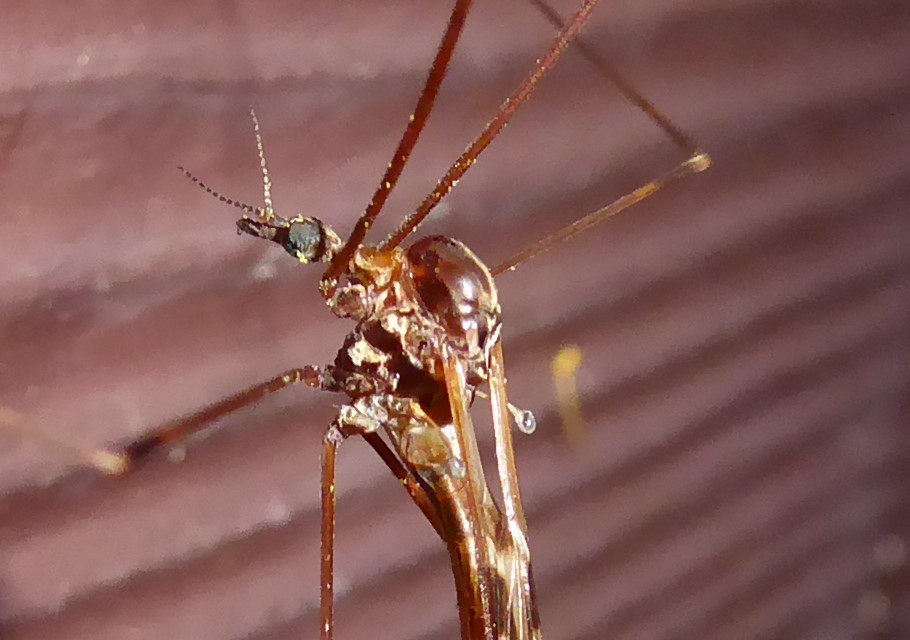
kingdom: Animalia
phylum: Arthropoda
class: Insecta
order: Diptera
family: Limoniidae
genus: Discobola
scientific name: Discobola dohrni
